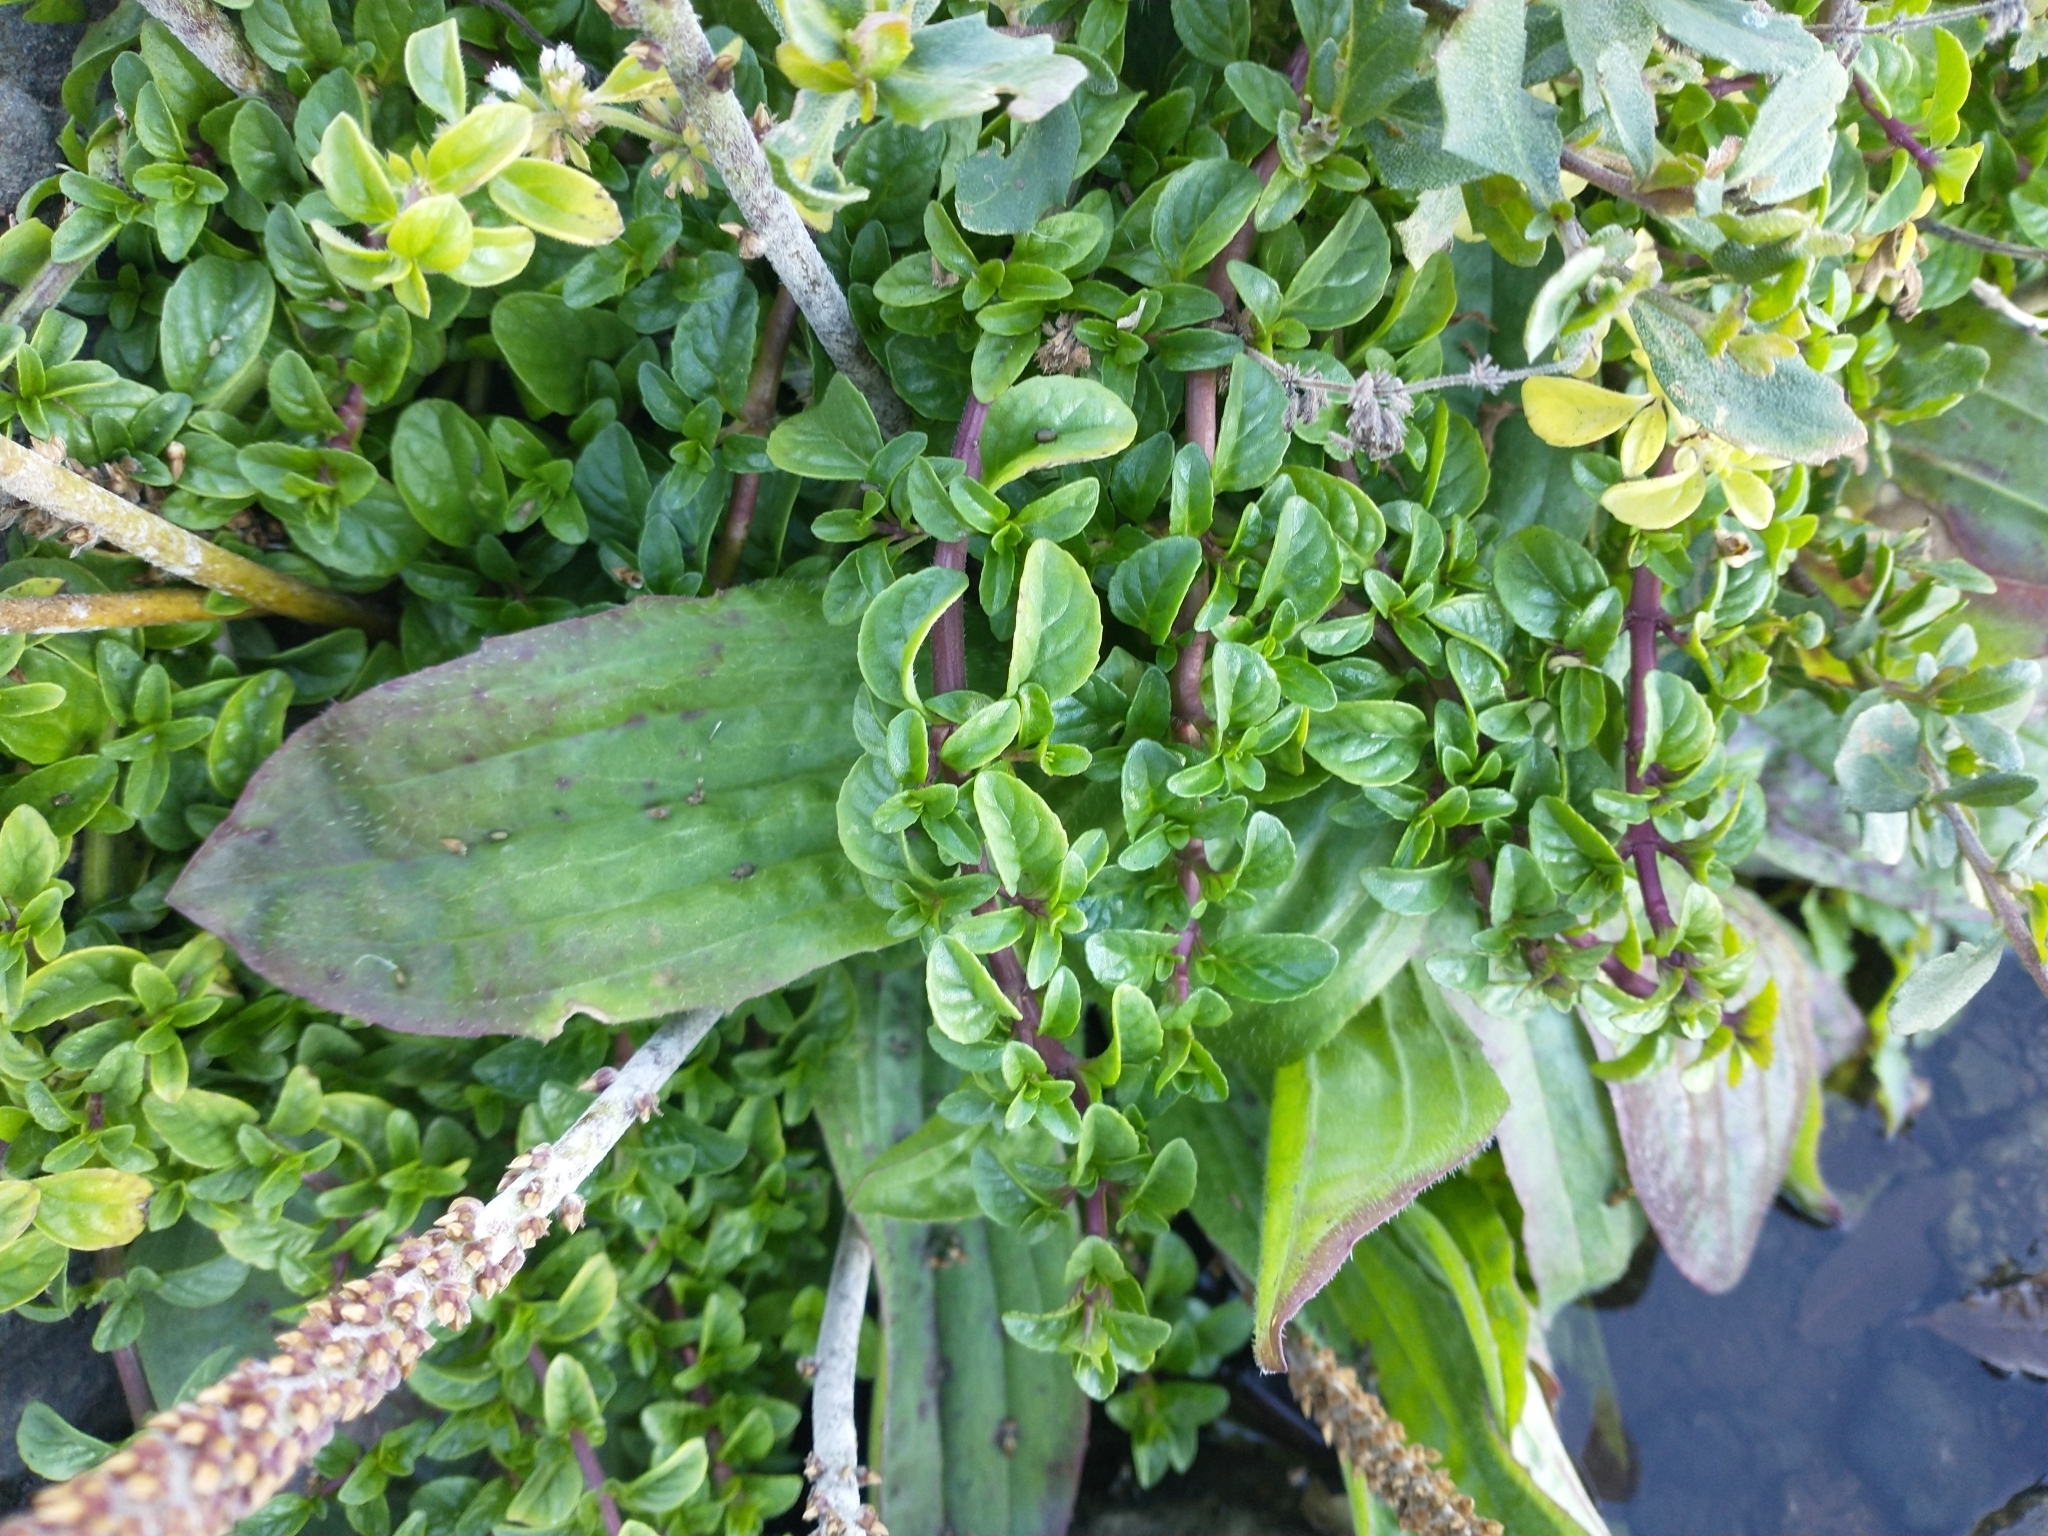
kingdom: Plantae
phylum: Tracheophyta
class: Magnoliopsida
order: Lamiales
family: Plantaginaceae
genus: Plantago
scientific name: Plantago subnuda
